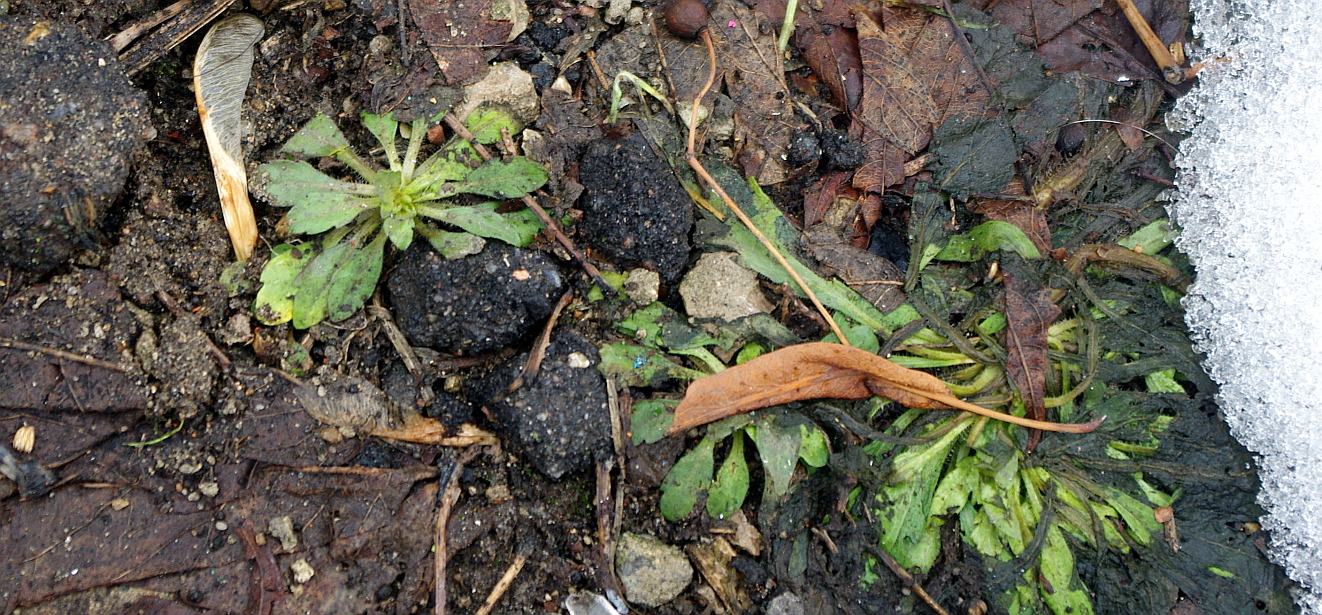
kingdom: Plantae
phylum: Tracheophyta
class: Magnoliopsida
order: Asterales
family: Asteraceae
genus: Erigeron
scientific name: Erigeron canadensis
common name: Canadian fleabane
